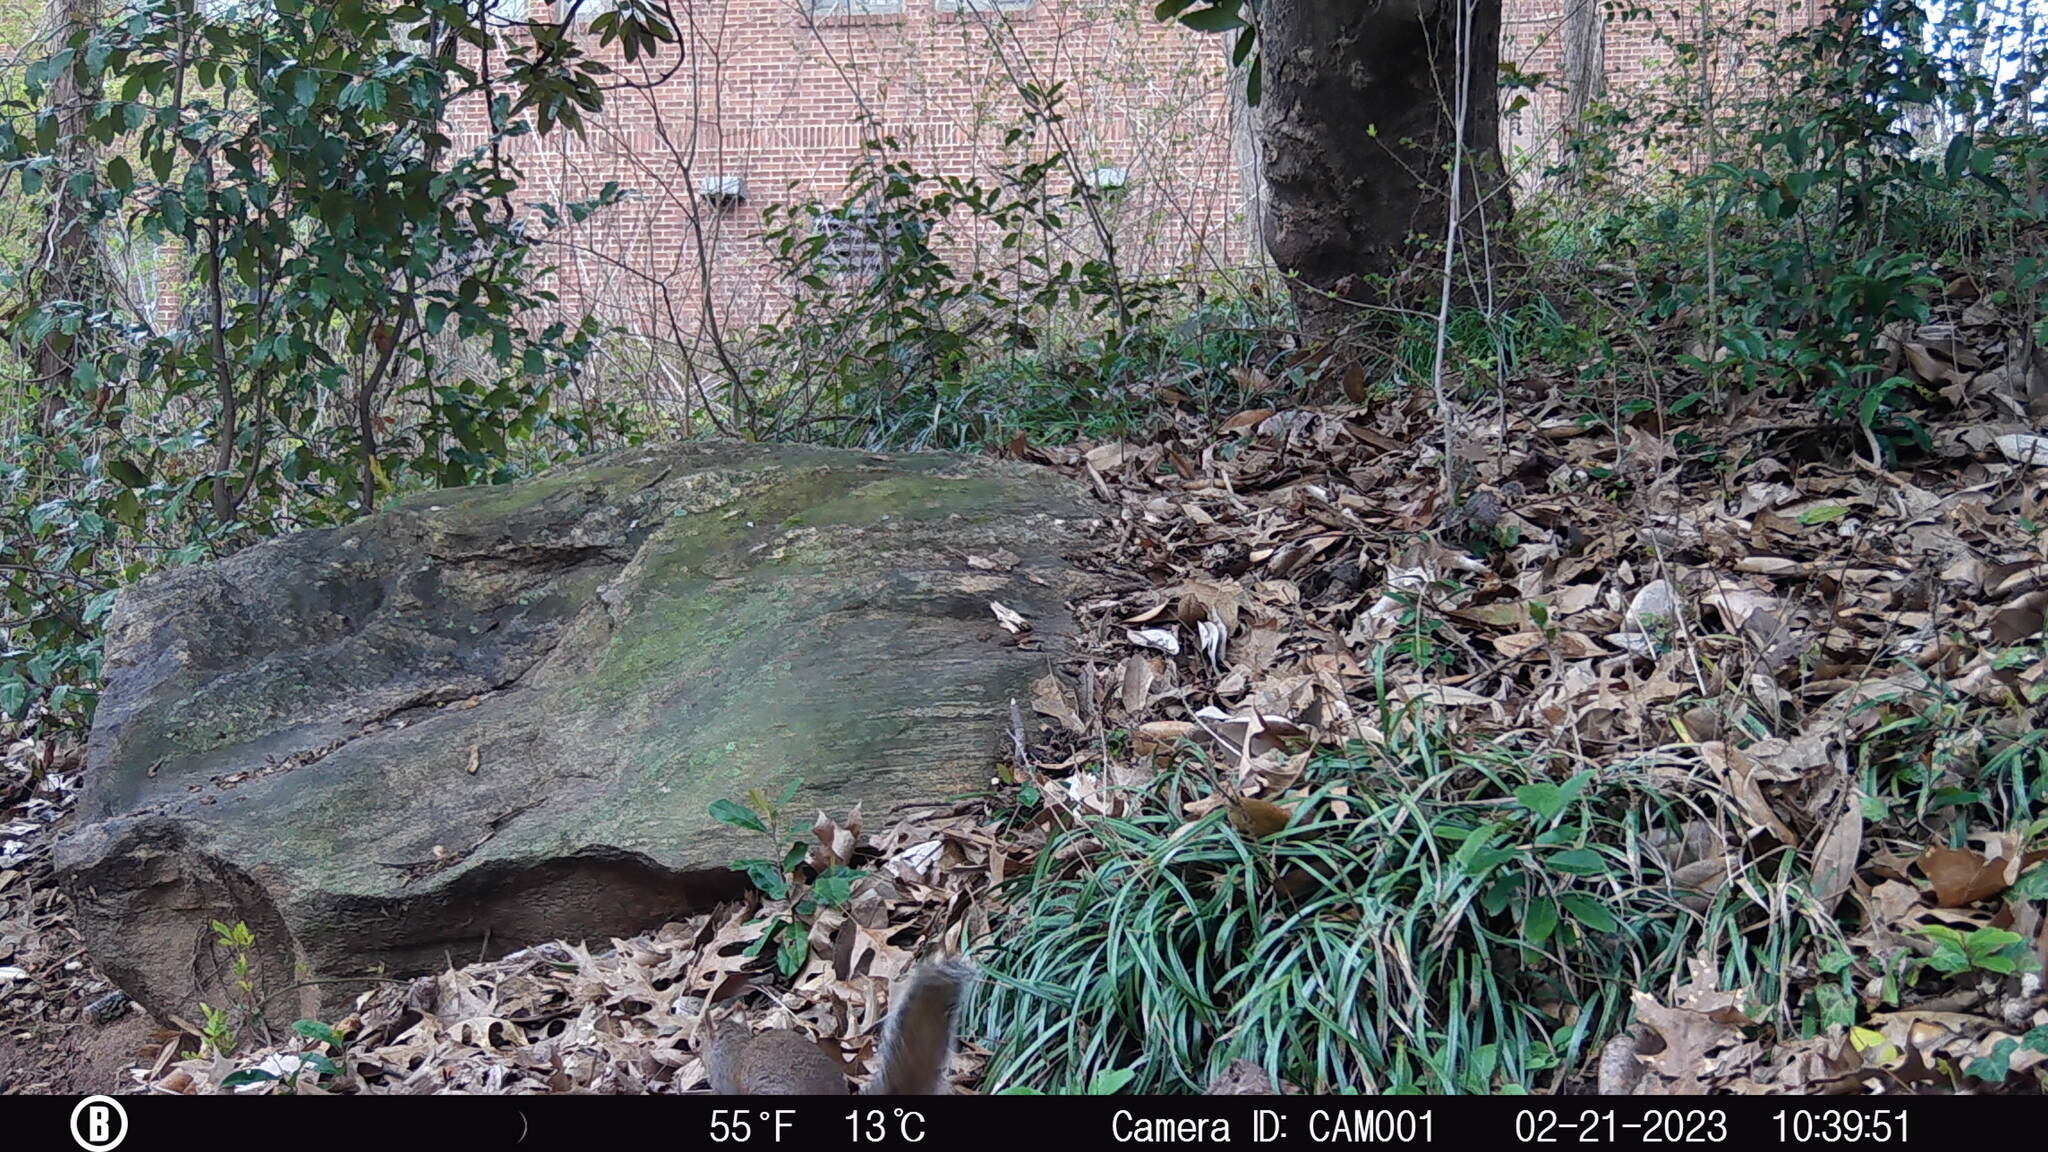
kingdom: Animalia
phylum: Chordata
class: Mammalia
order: Rodentia
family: Sciuridae
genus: Sciurus
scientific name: Sciurus carolinensis
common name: Eastern gray squirrel
